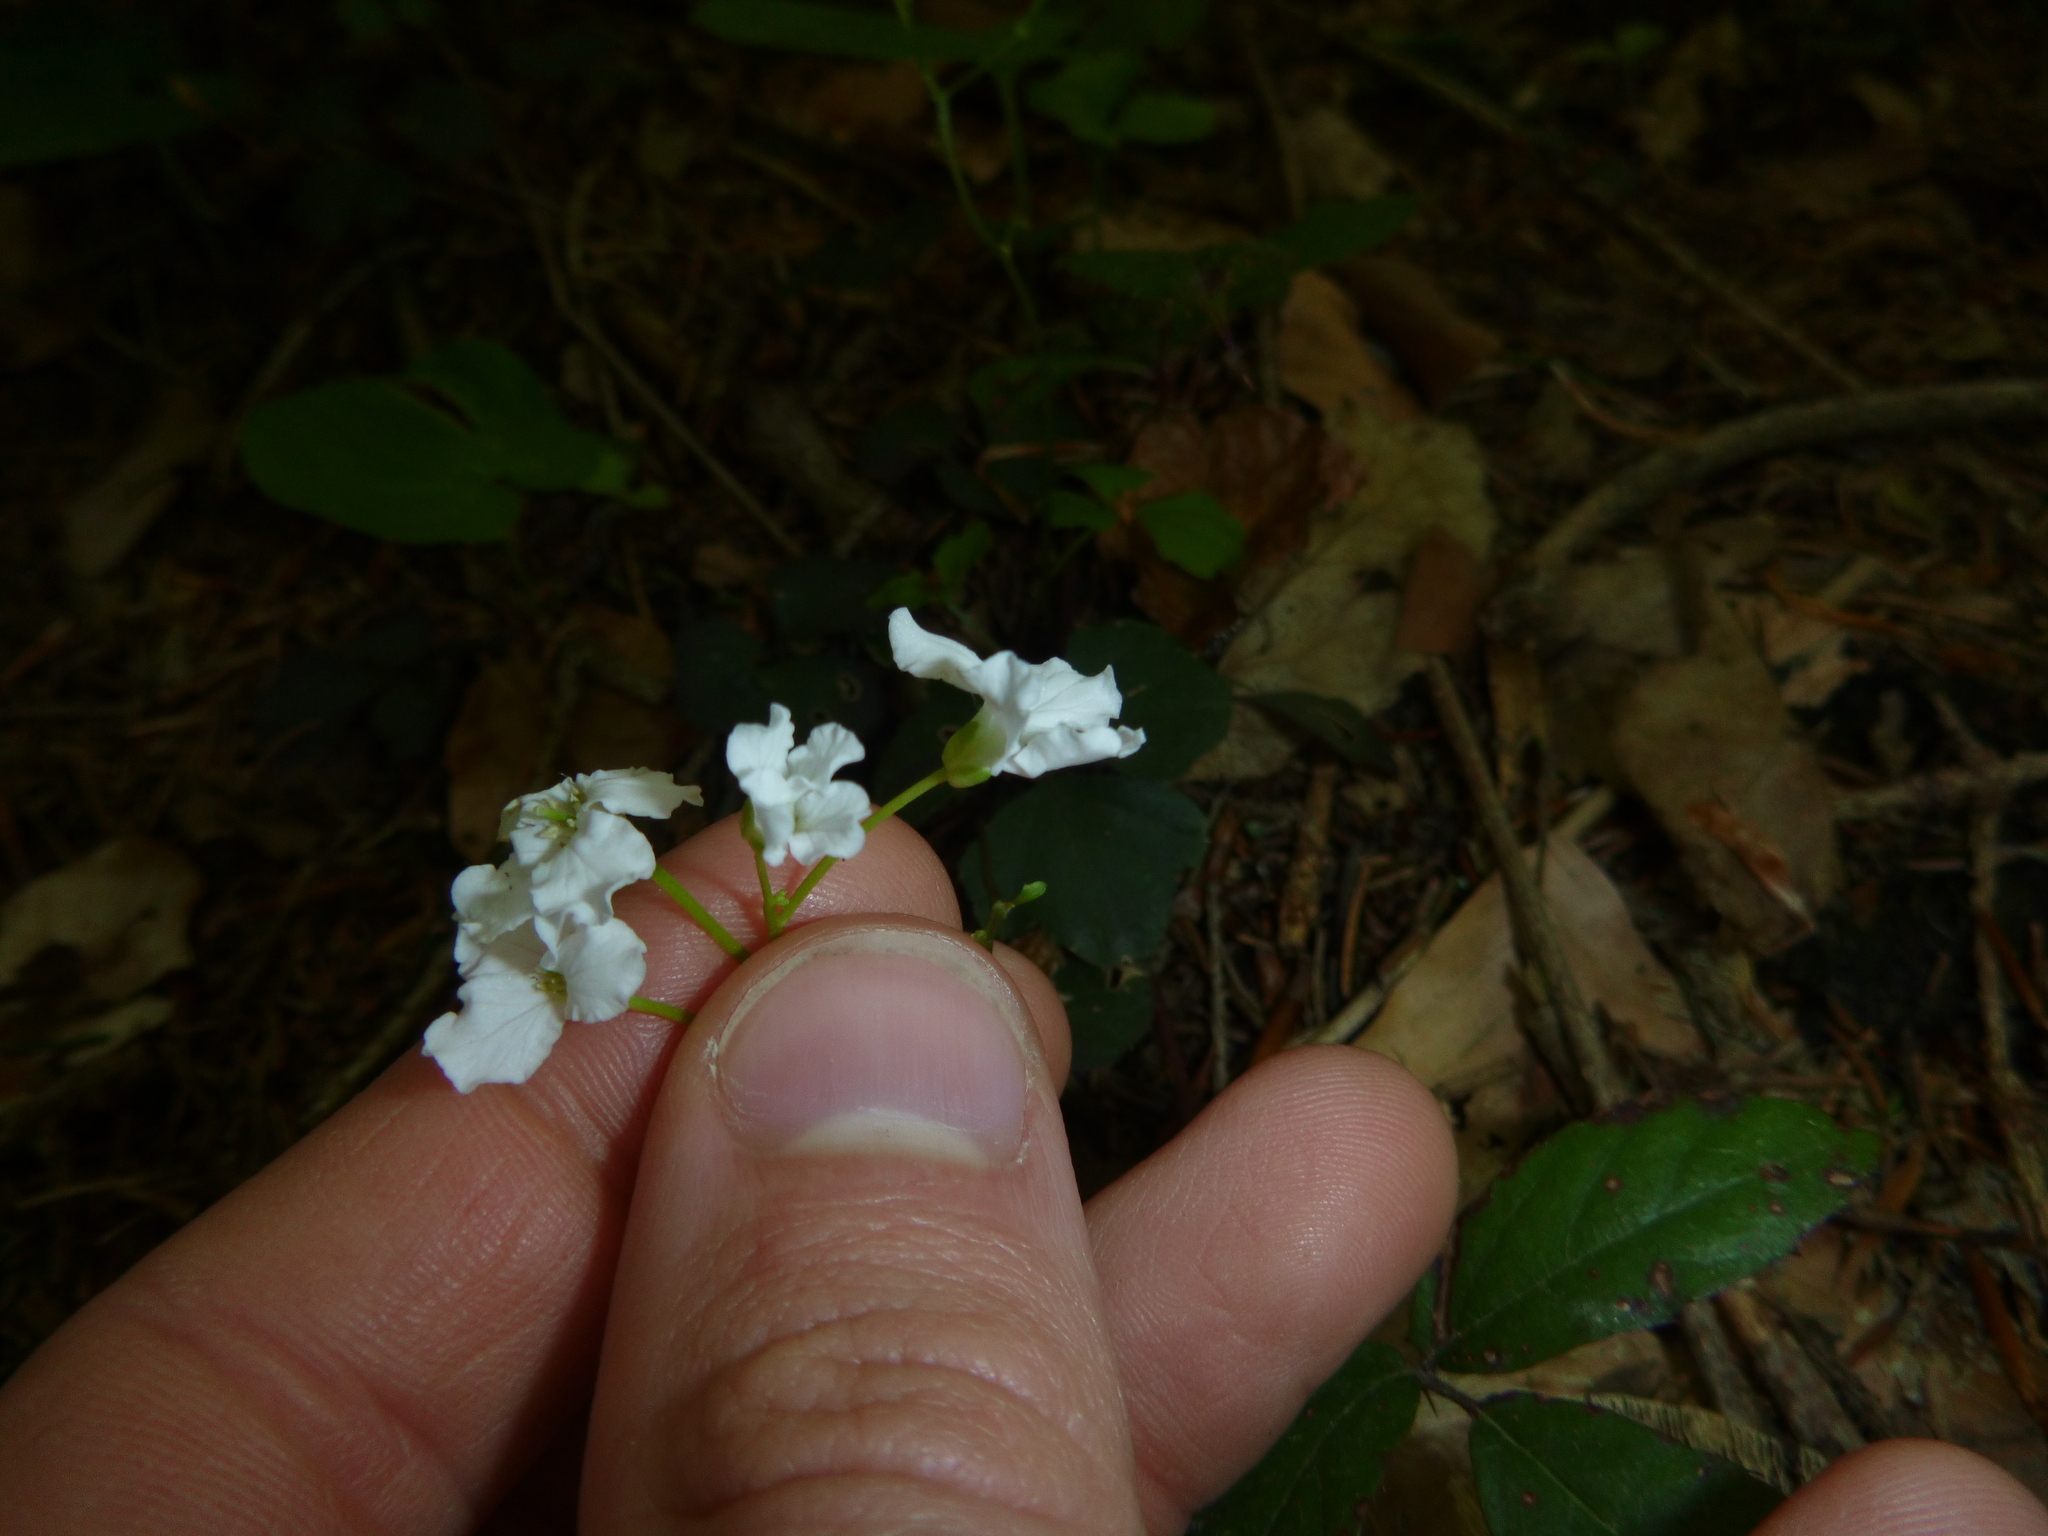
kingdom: Plantae
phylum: Tracheophyta
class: Magnoliopsida
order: Brassicales
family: Brassicaceae
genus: Cardamine
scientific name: Cardamine trifolia
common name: Trefoil cress
